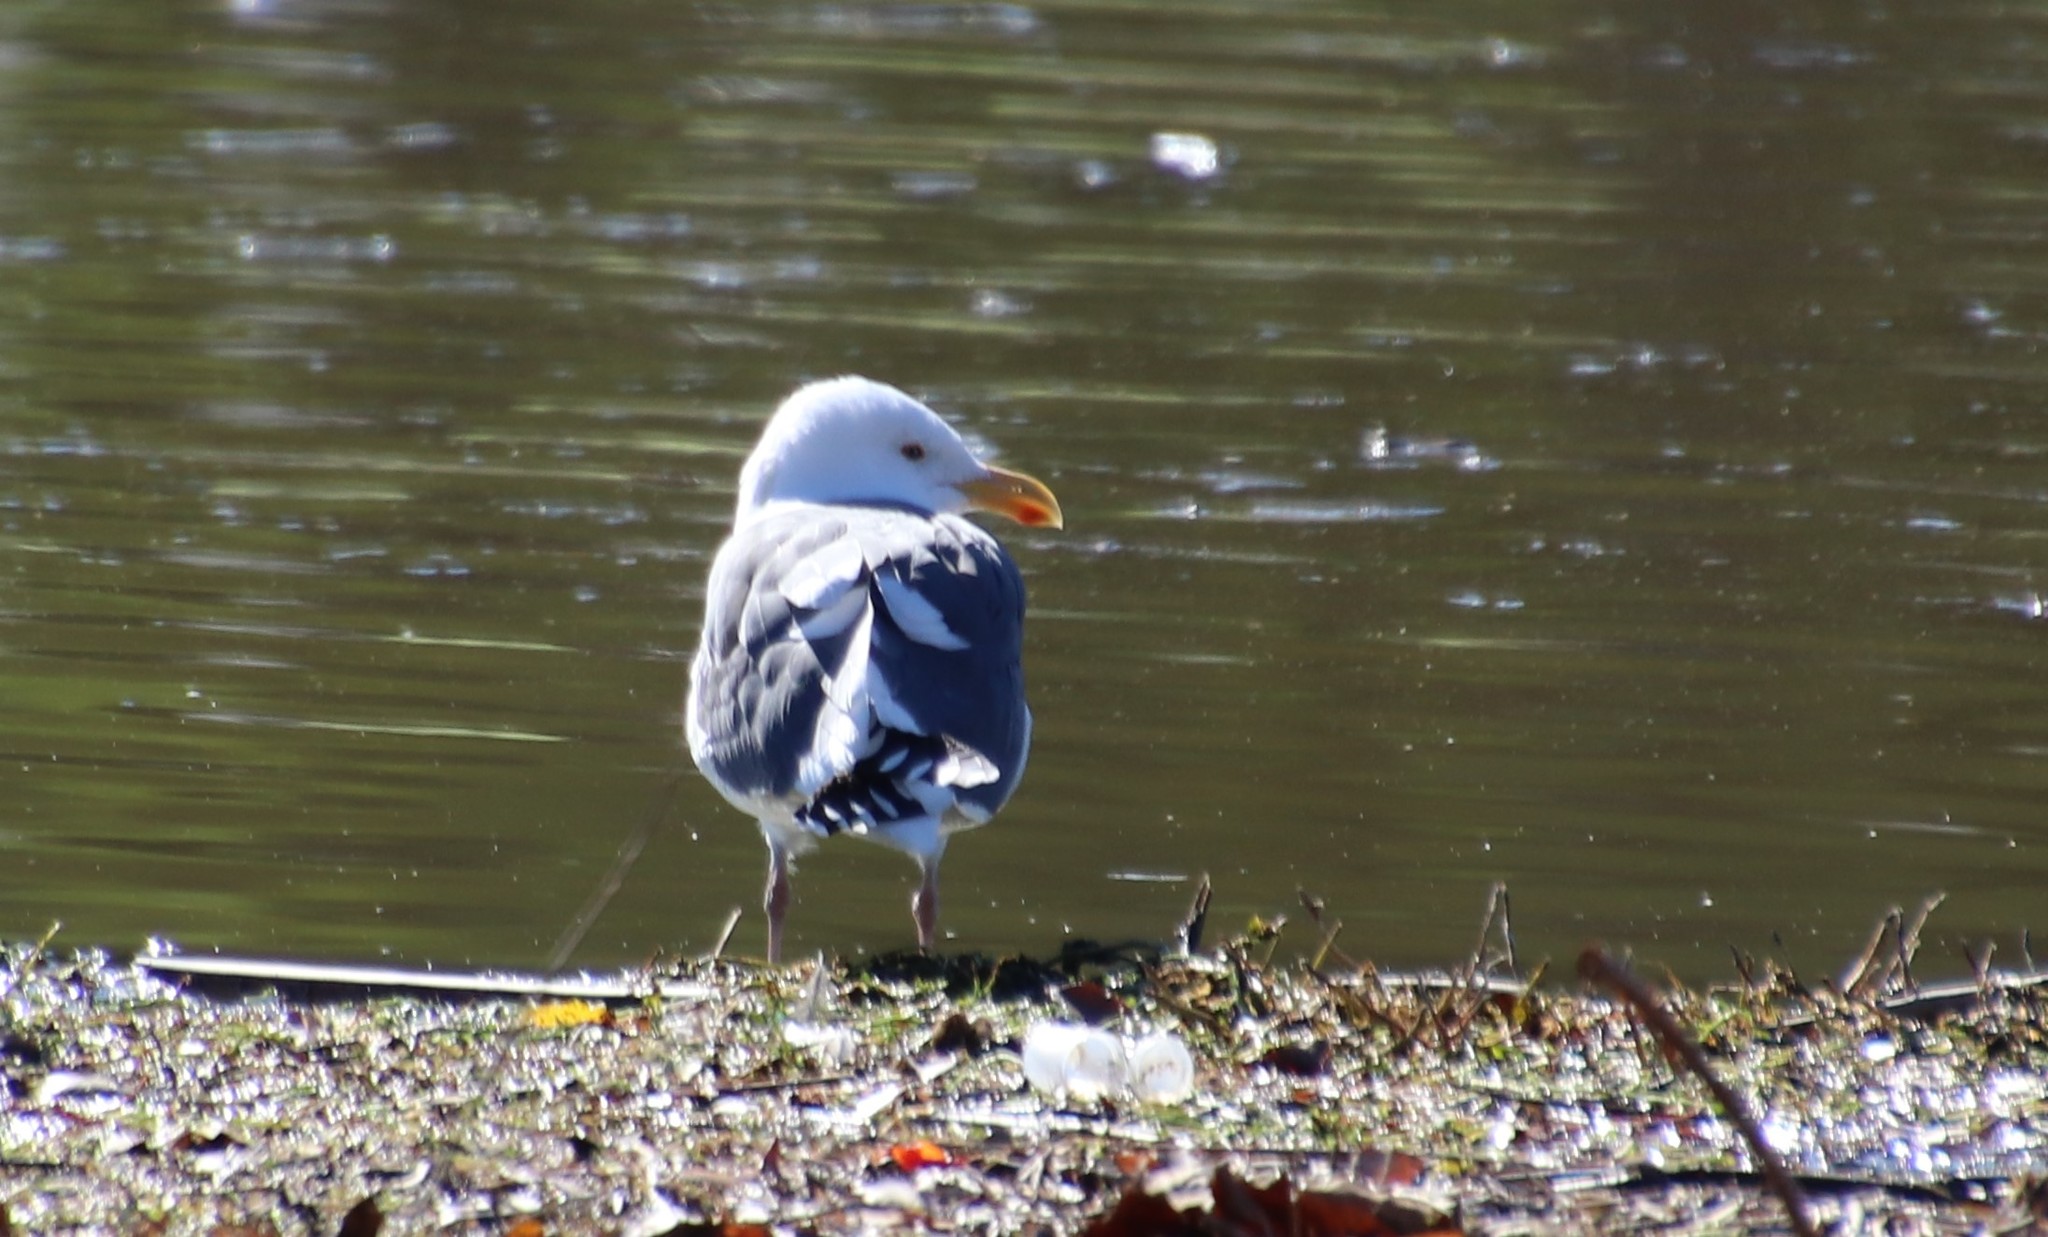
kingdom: Animalia
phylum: Chordata
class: Aves
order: Charadriiformes
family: Laridae
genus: Larus
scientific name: Larus occidentalis
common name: Western gull
